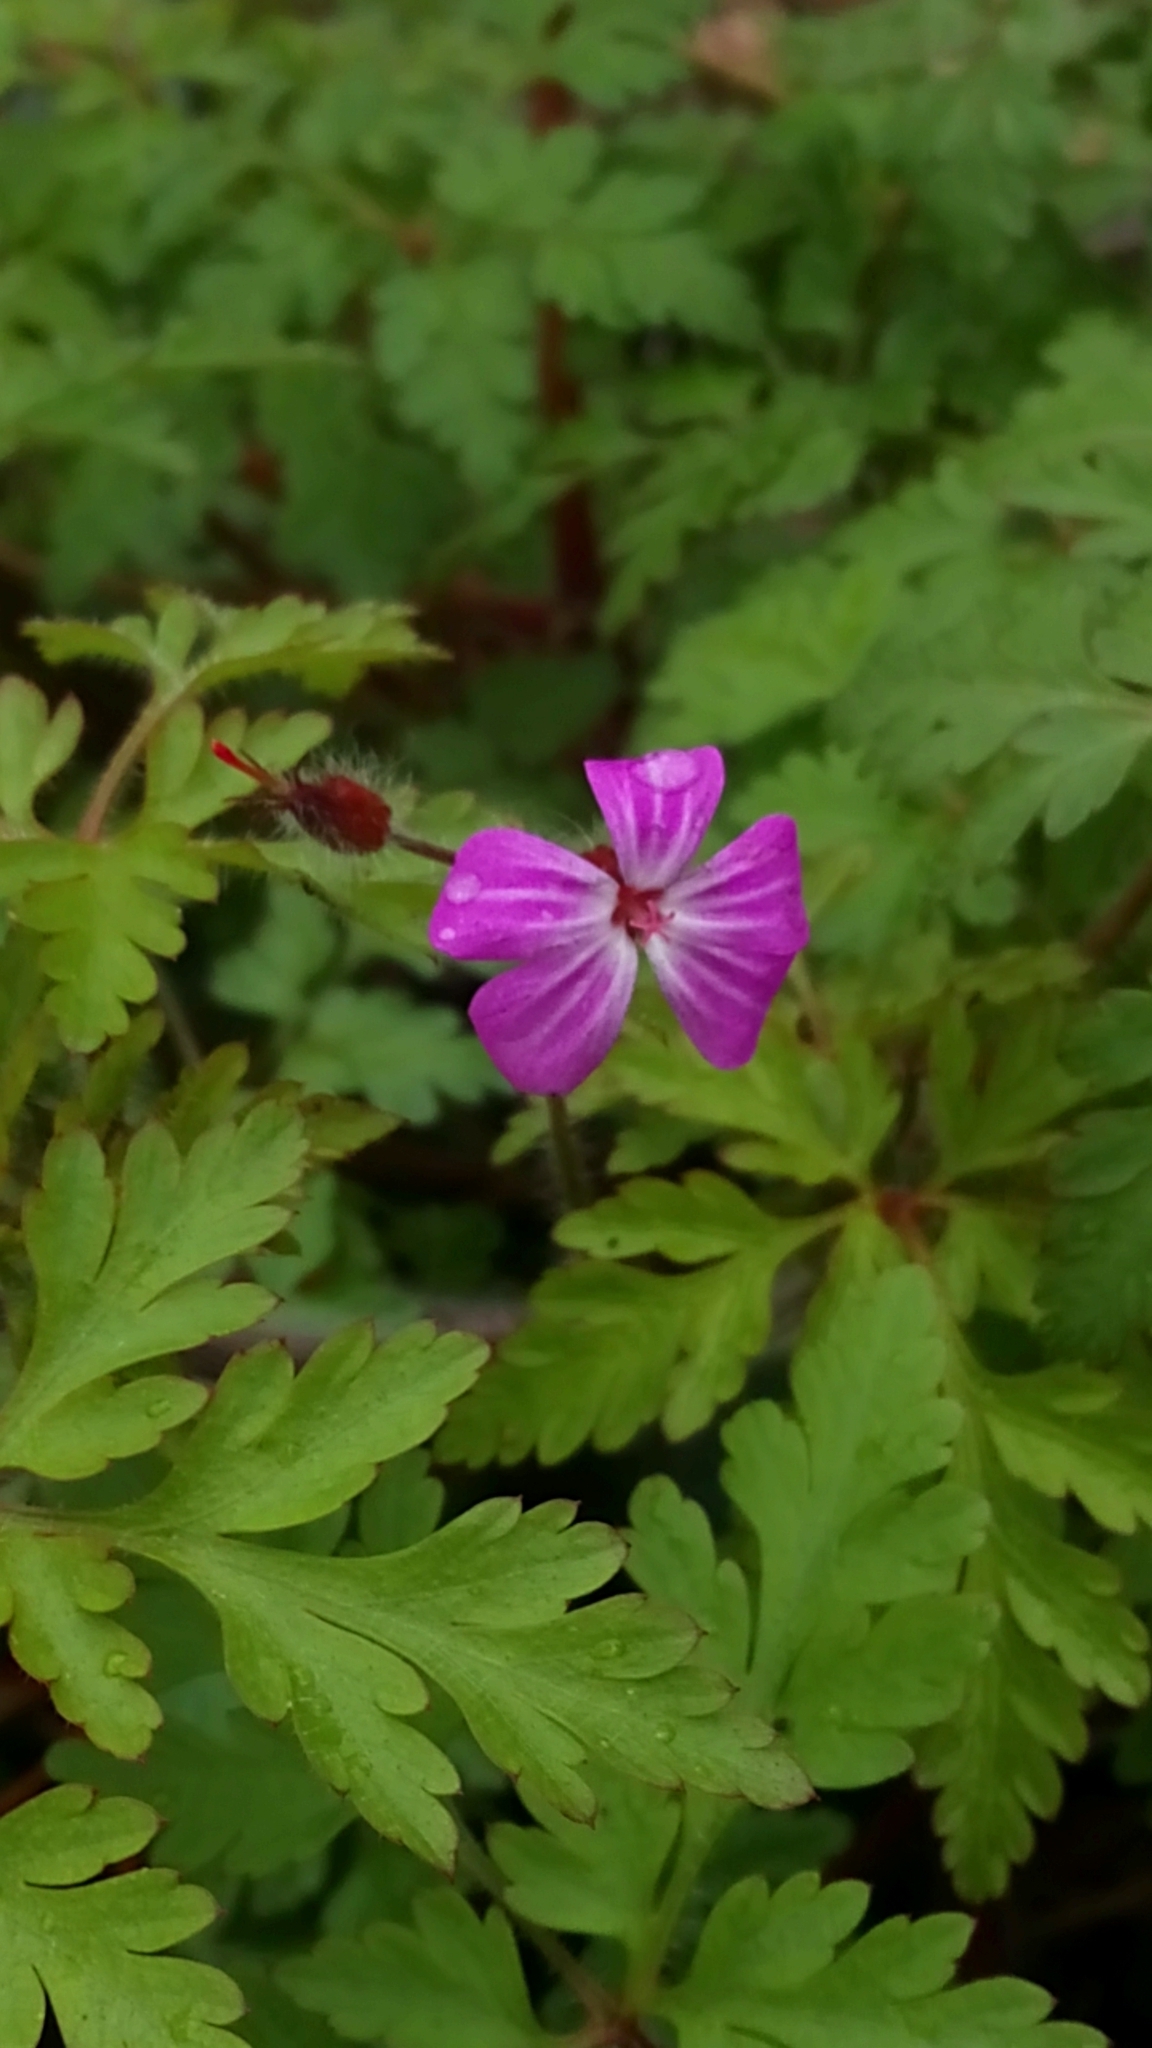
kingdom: Plantae
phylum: Tracheophyta
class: Magnoliopsida
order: Geraniales
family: Geraniaceae
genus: Geranium
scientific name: Geranium robertianum
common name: Herb-robert
